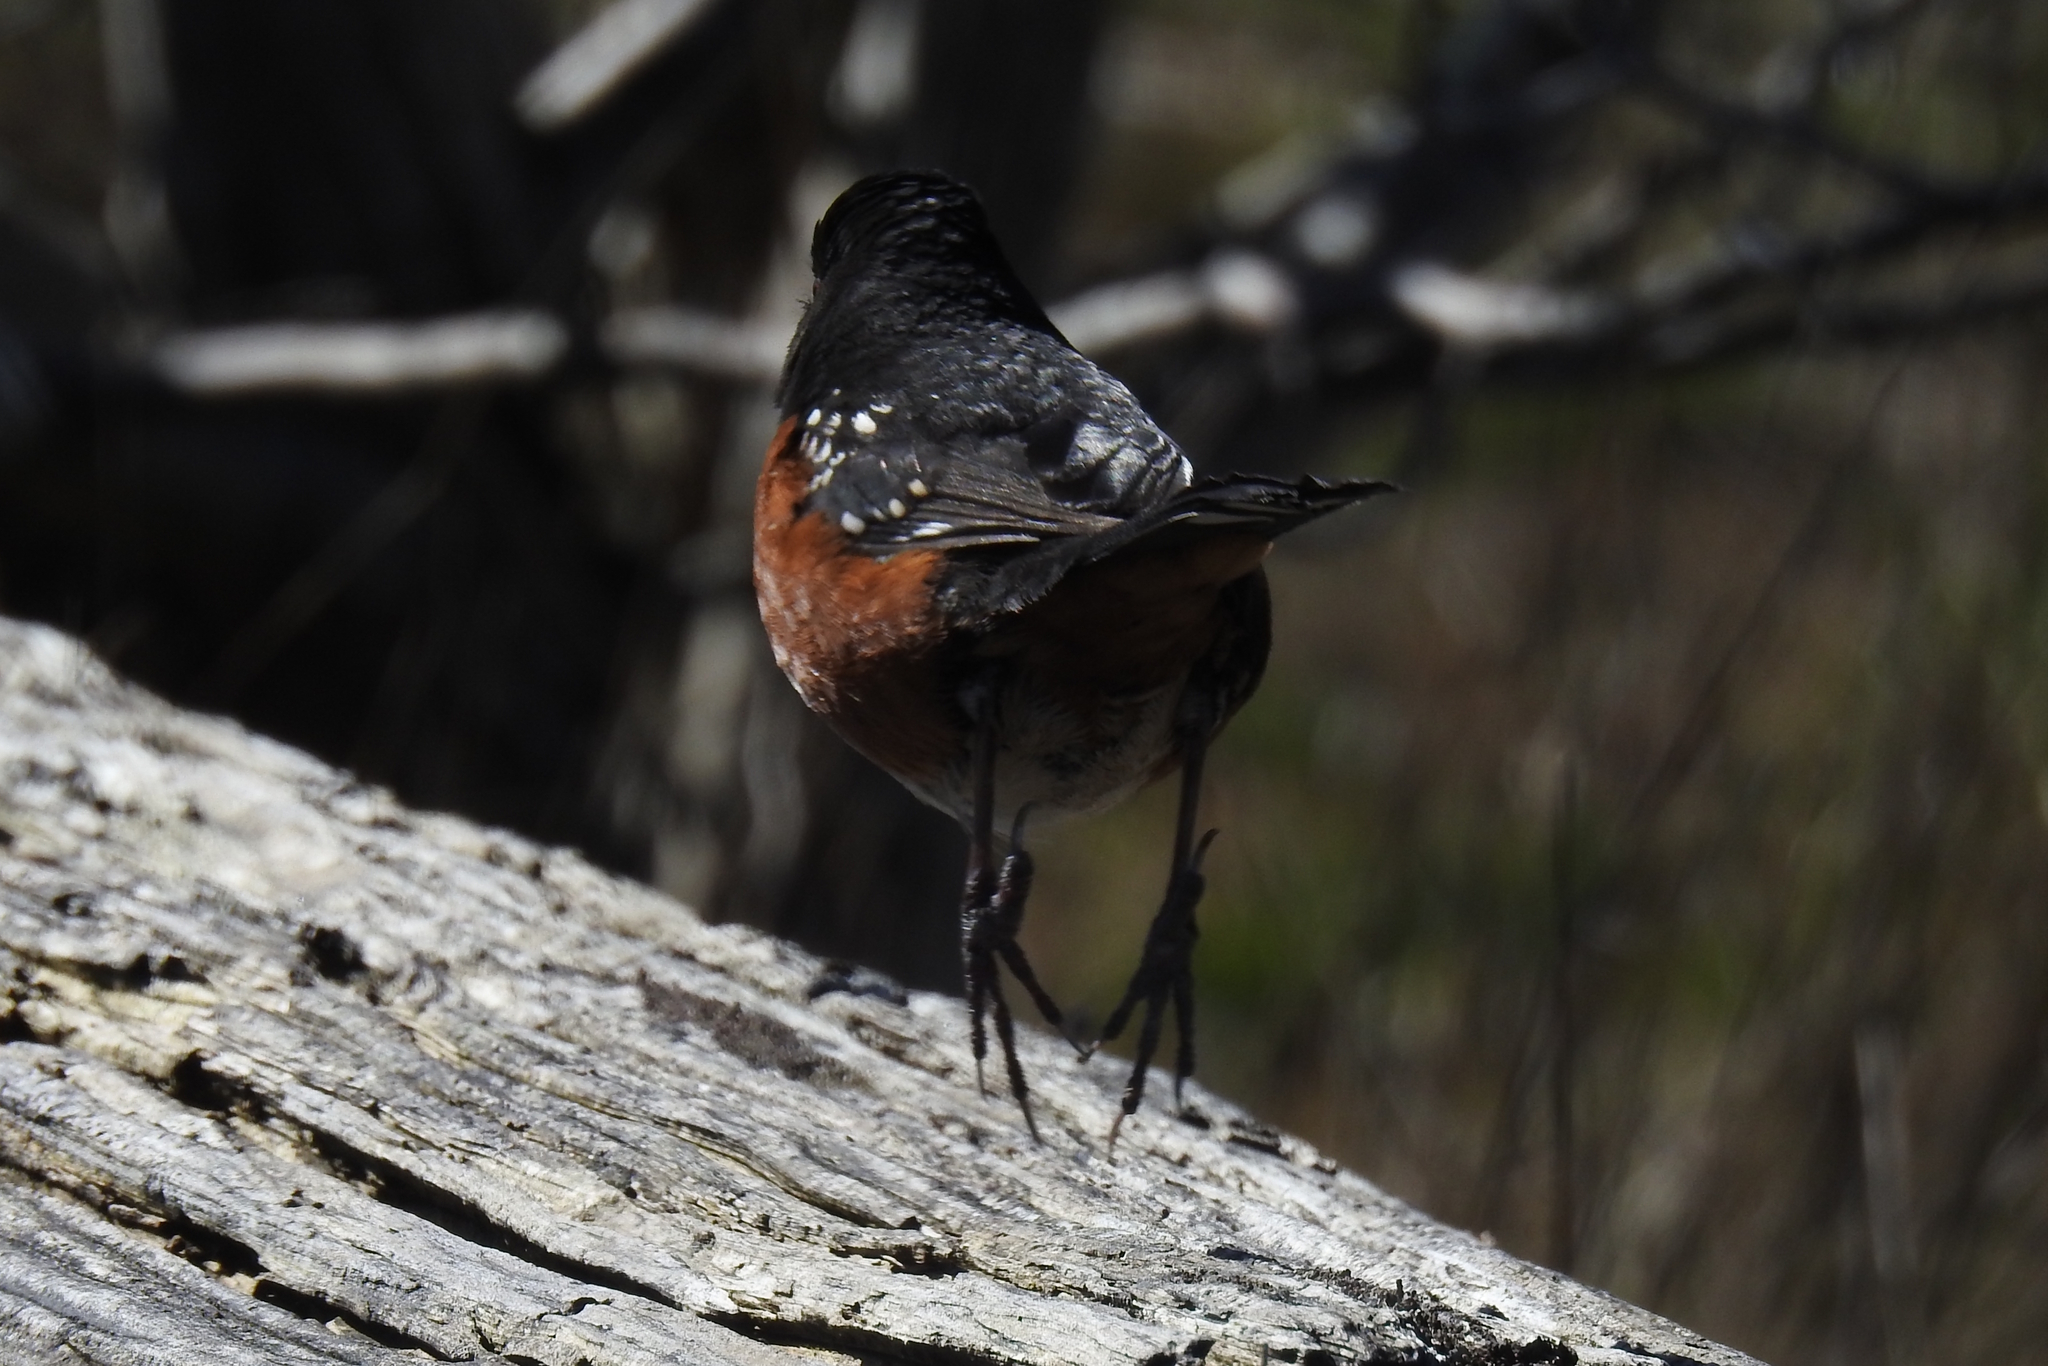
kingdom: Animalia
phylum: Chordata
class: Aves
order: Passeriformes
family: Passerellidae
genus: Pipilo
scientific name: Pipilo maculatus
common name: Spotted towhee
